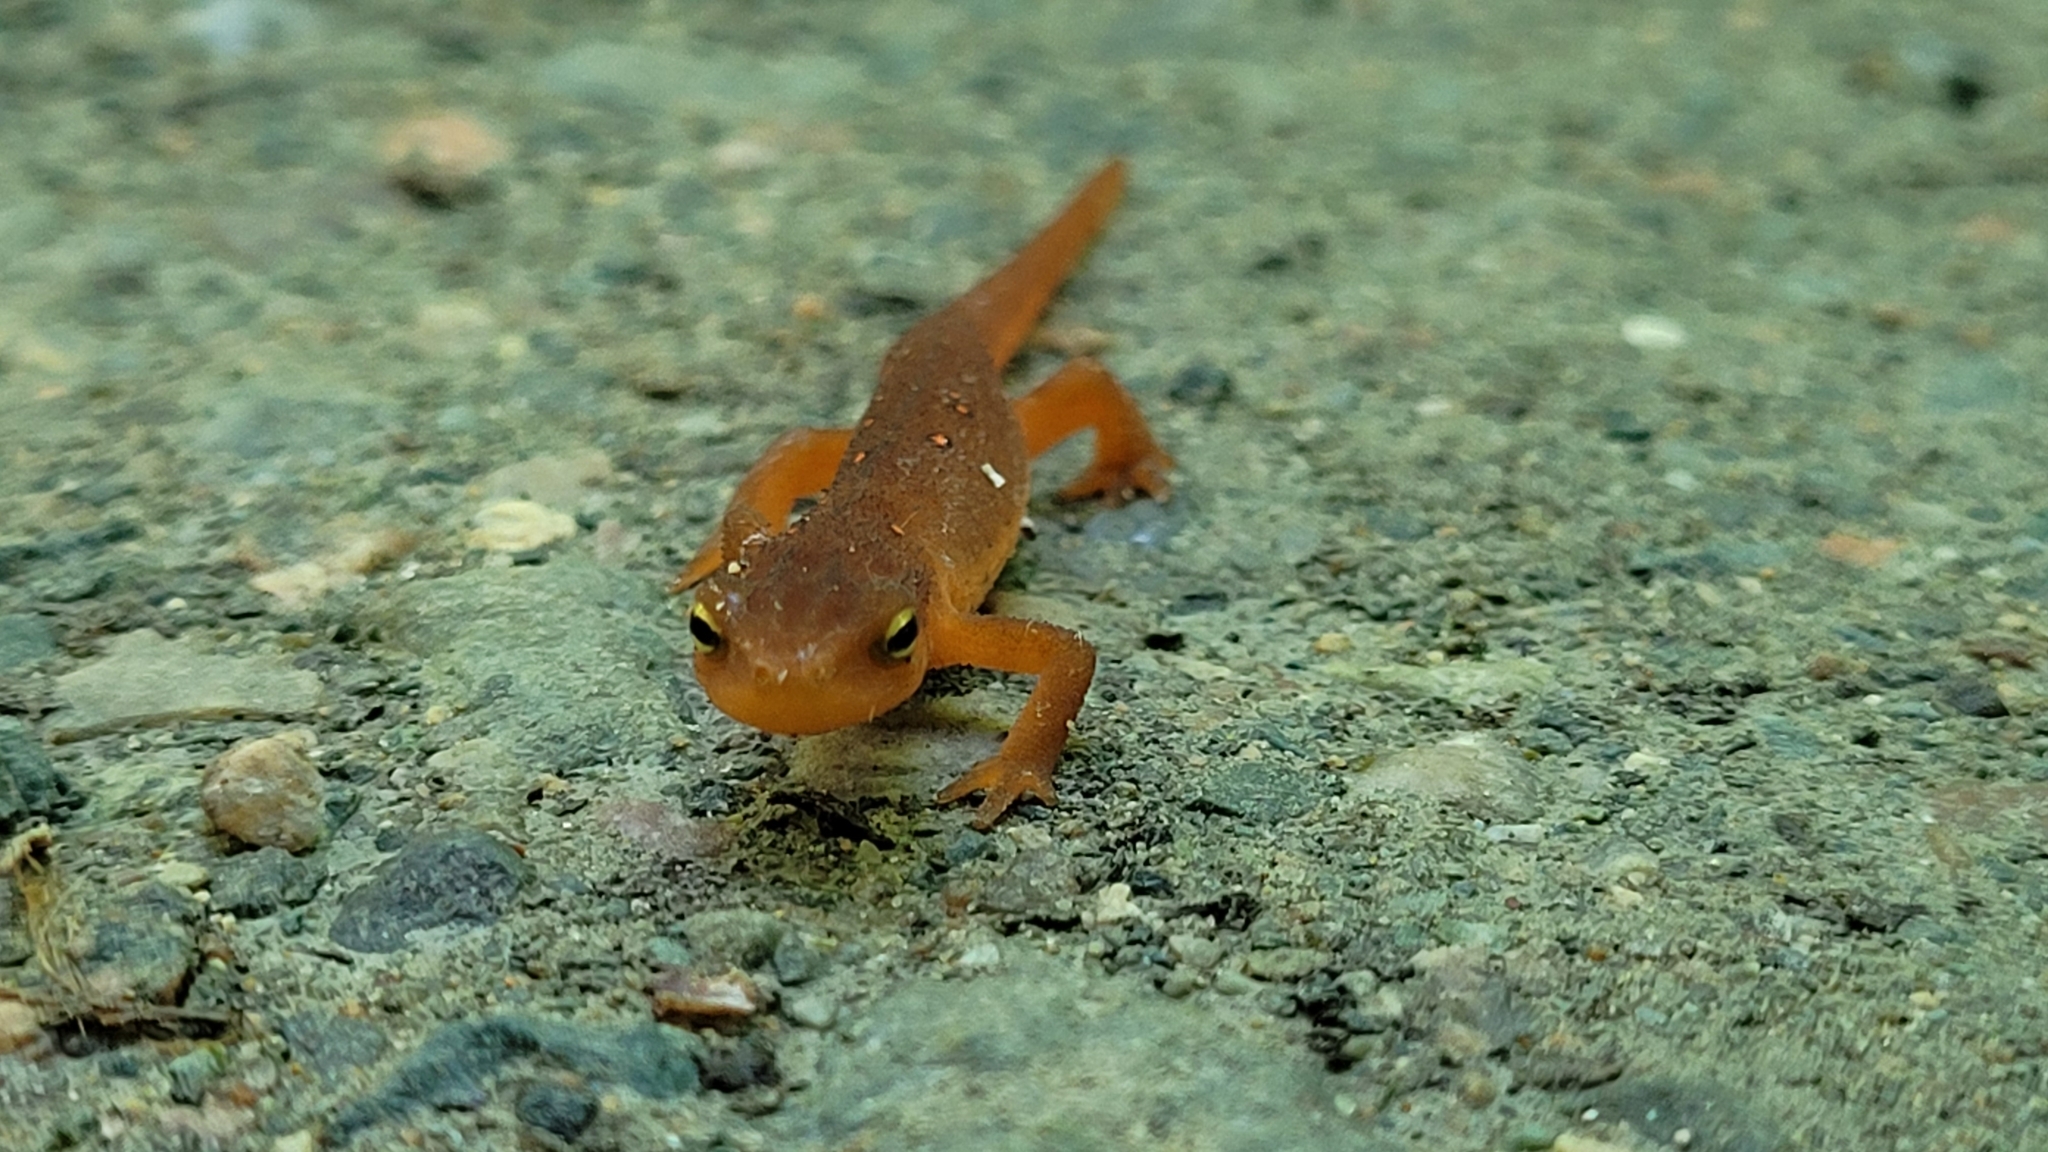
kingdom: Animalia
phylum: Chordata
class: Amphibia
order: Caudata
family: Salamandridae
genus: Notophthalmus
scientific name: Notophthalmus viridescens
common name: Eastern newt
